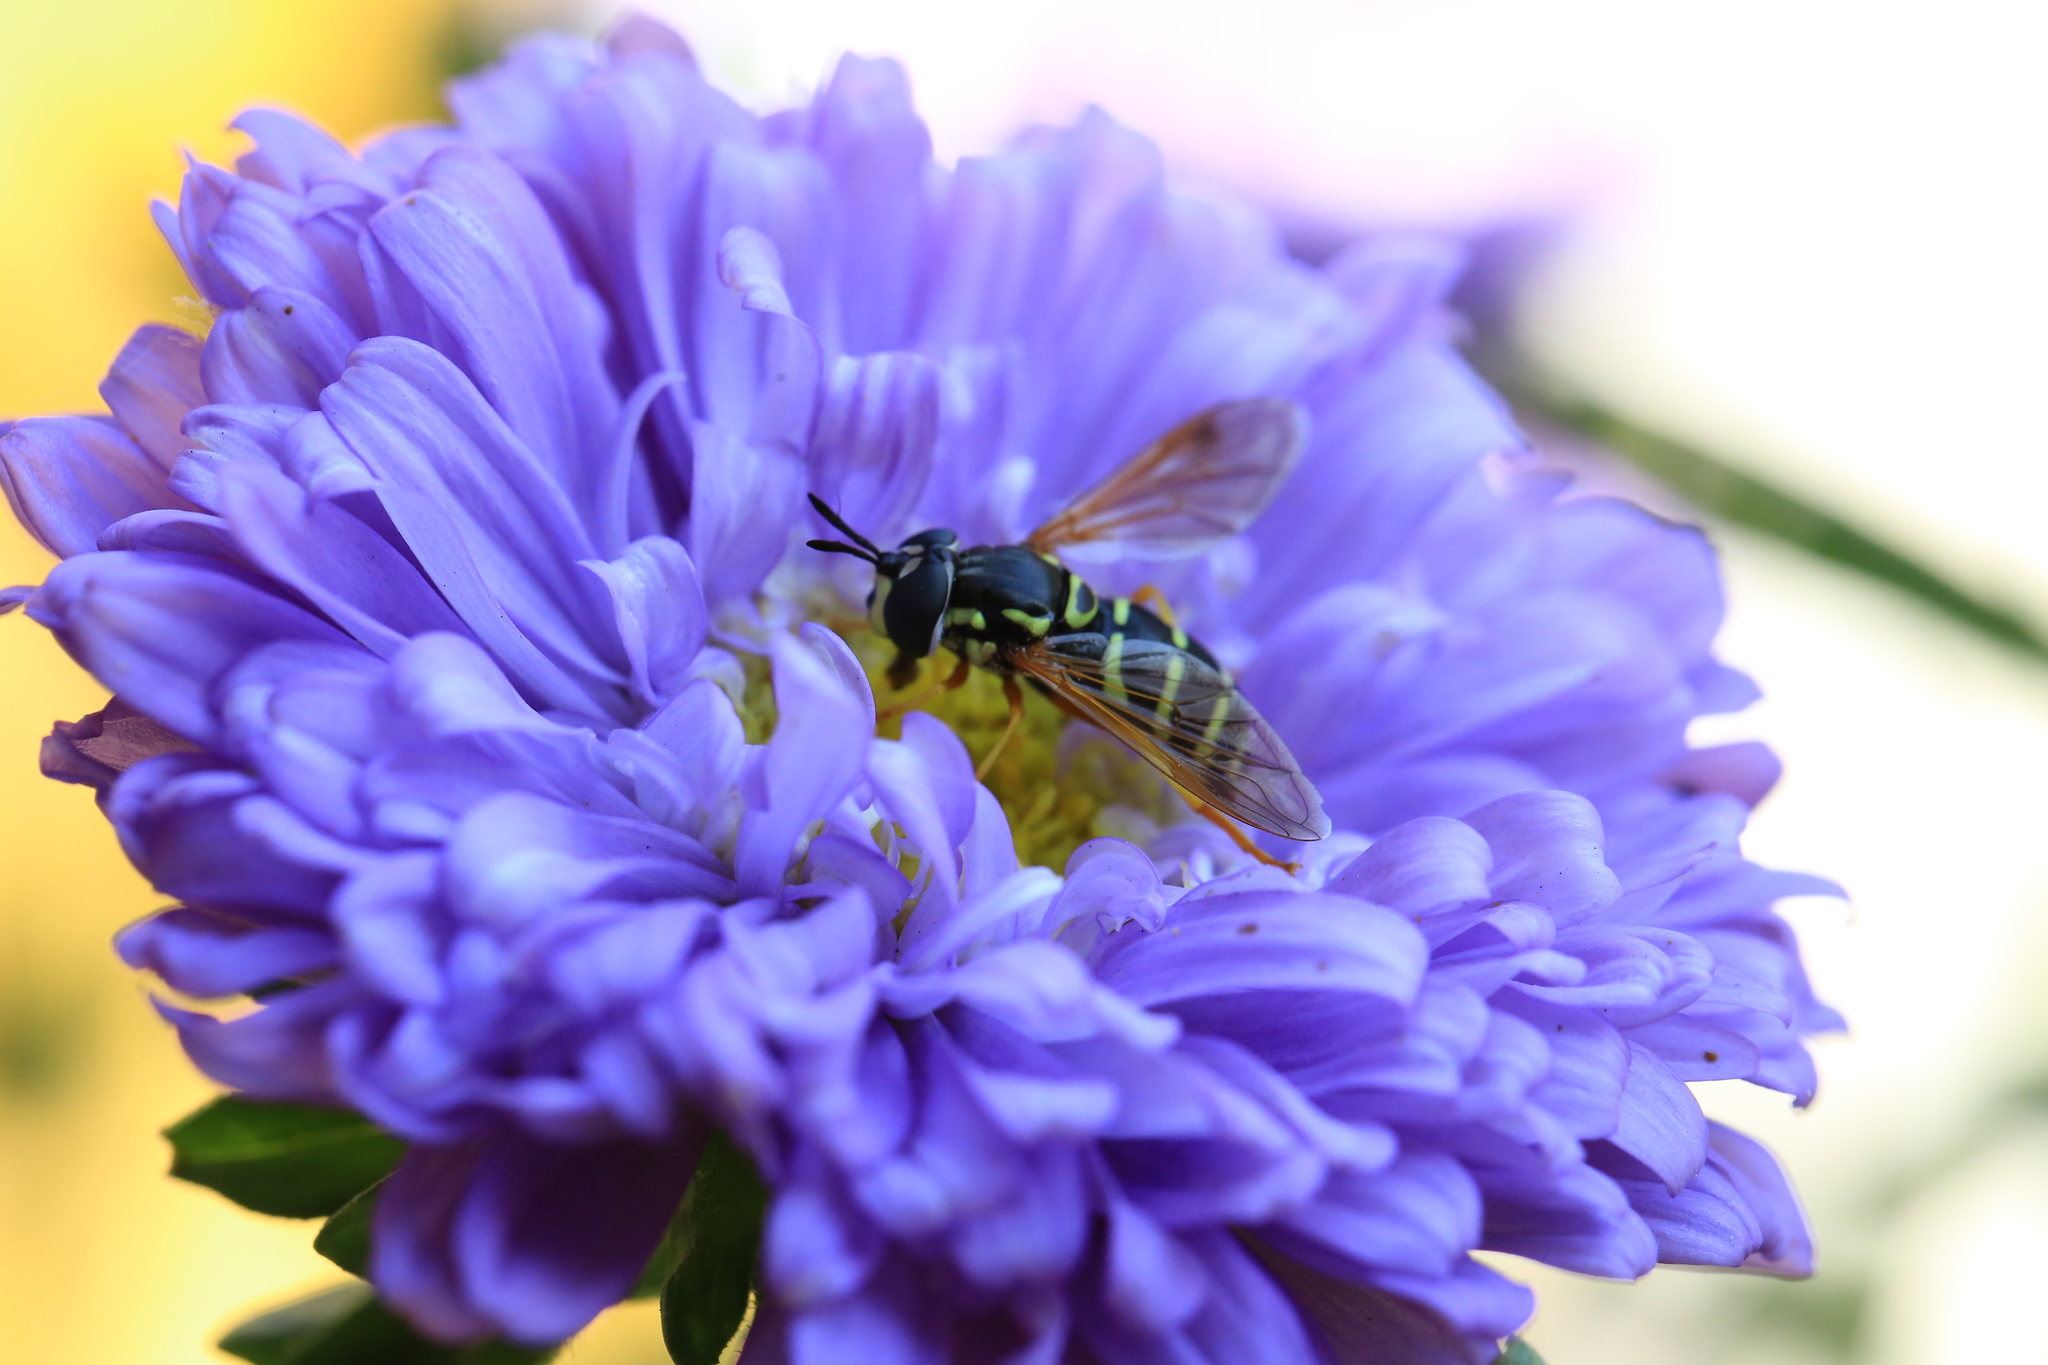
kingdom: Animalia
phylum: Arthropoda
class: Insecta
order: Diptera
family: Syrphidae
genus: Chrysotoxum
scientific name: Chrysotoxum festivum
